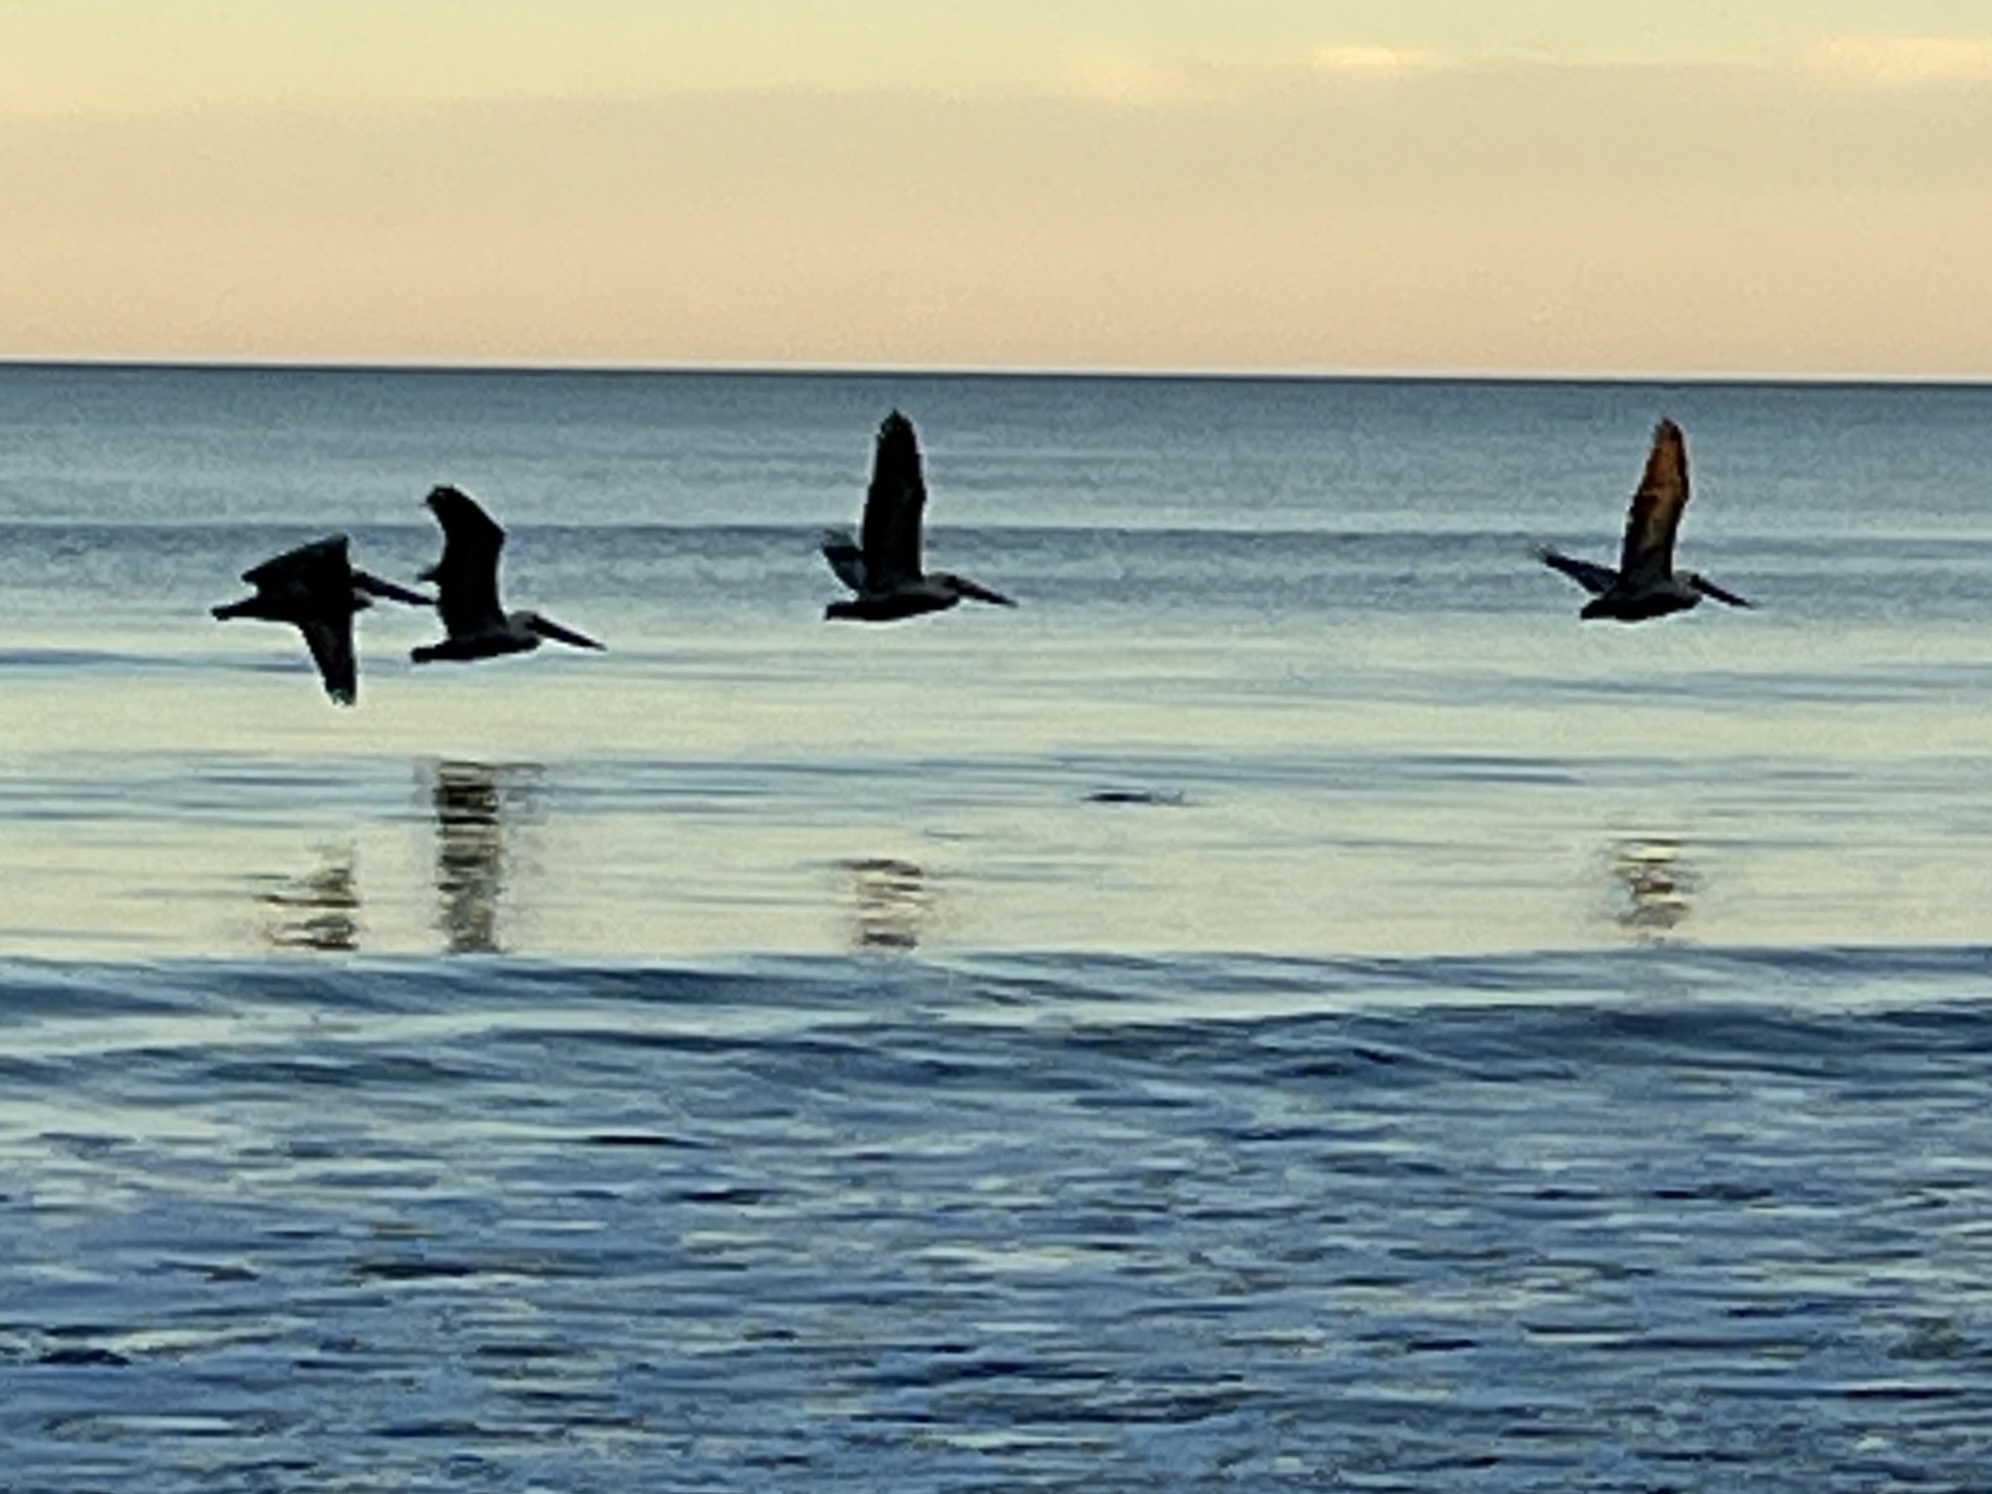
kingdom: Animalia
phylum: Chordata
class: Aves
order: Pelecaniformes
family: Pelecanidae
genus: Pelecanus
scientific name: Pelecanus occidentalis
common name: Brown pelican
